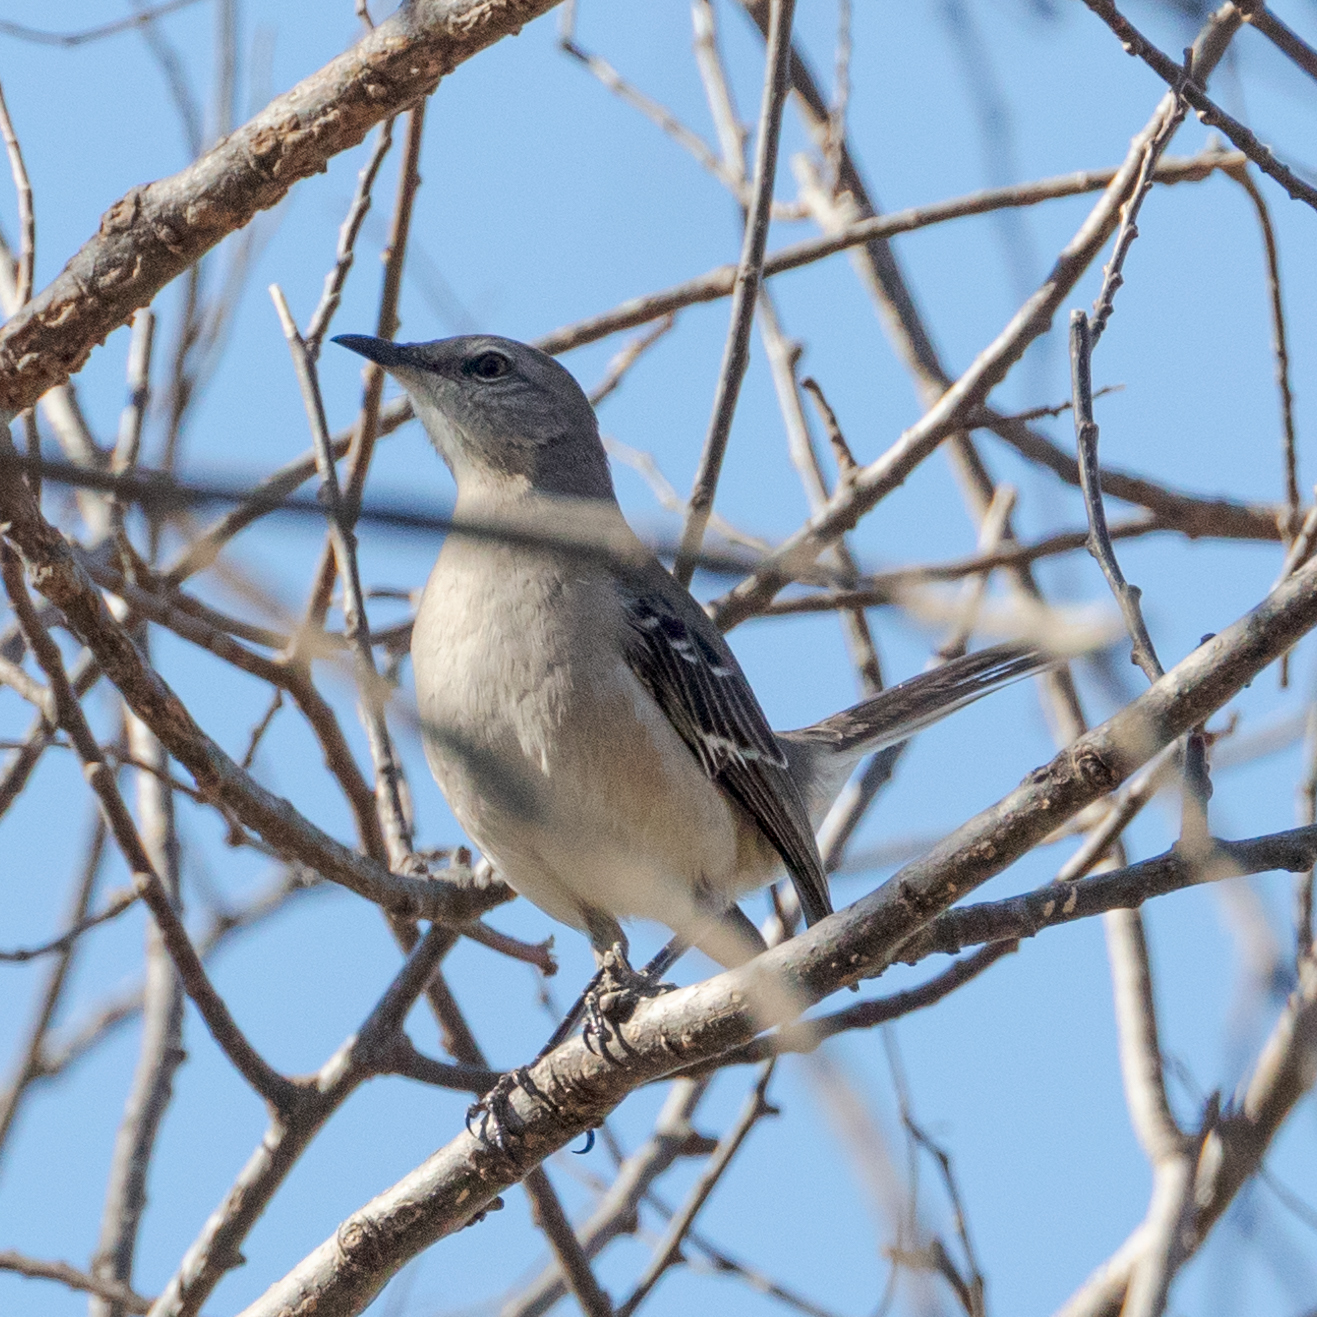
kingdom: Animalia
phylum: Chordata
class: Aves
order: Passeriformes
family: Mimidae
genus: Mimus
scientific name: Mimus polyglottos
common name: Northern mockingbird
